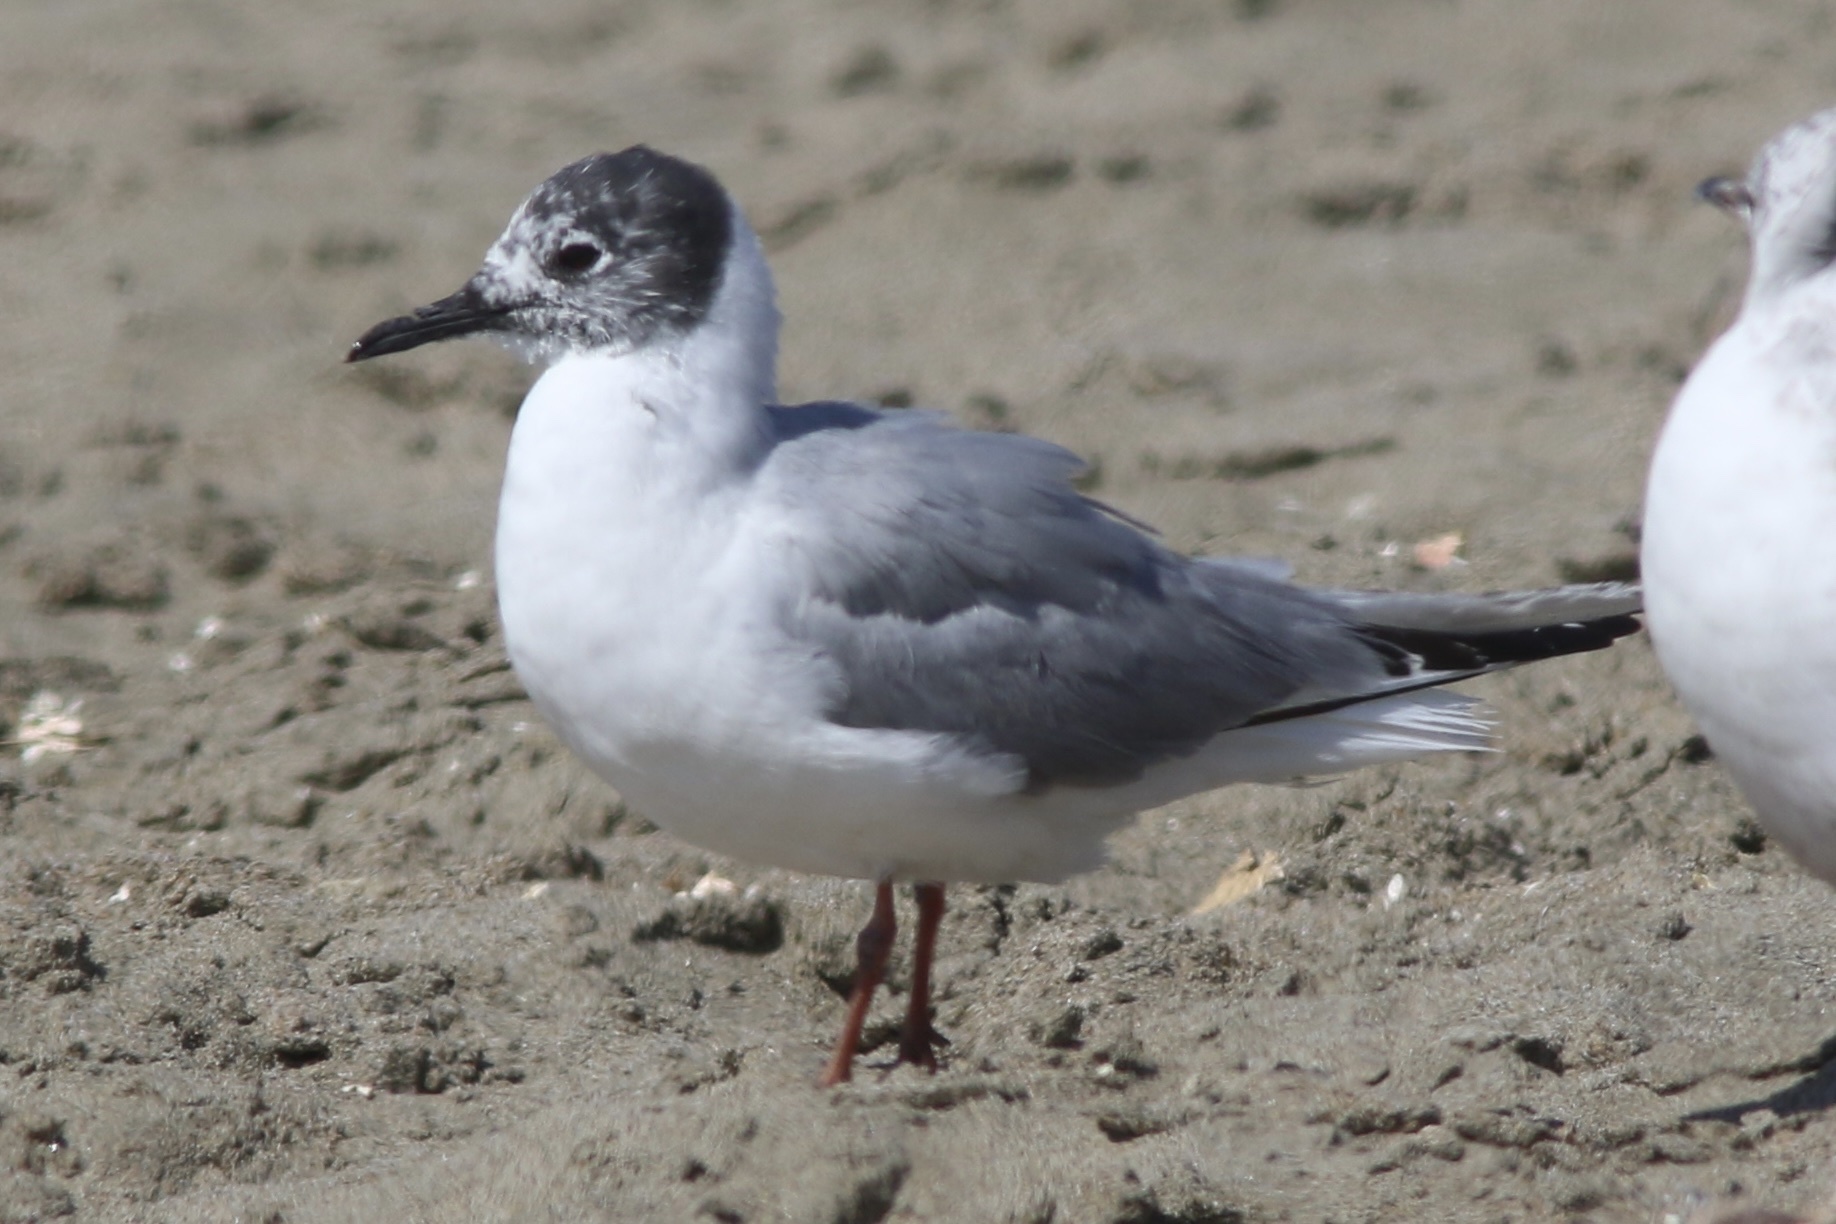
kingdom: Animalia
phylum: Chordata
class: Aves
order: Charadriiformes
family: Laridae
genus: Chroicocephalus
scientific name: Chroicocephalus philadelphia
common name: Bonaparte's gull
